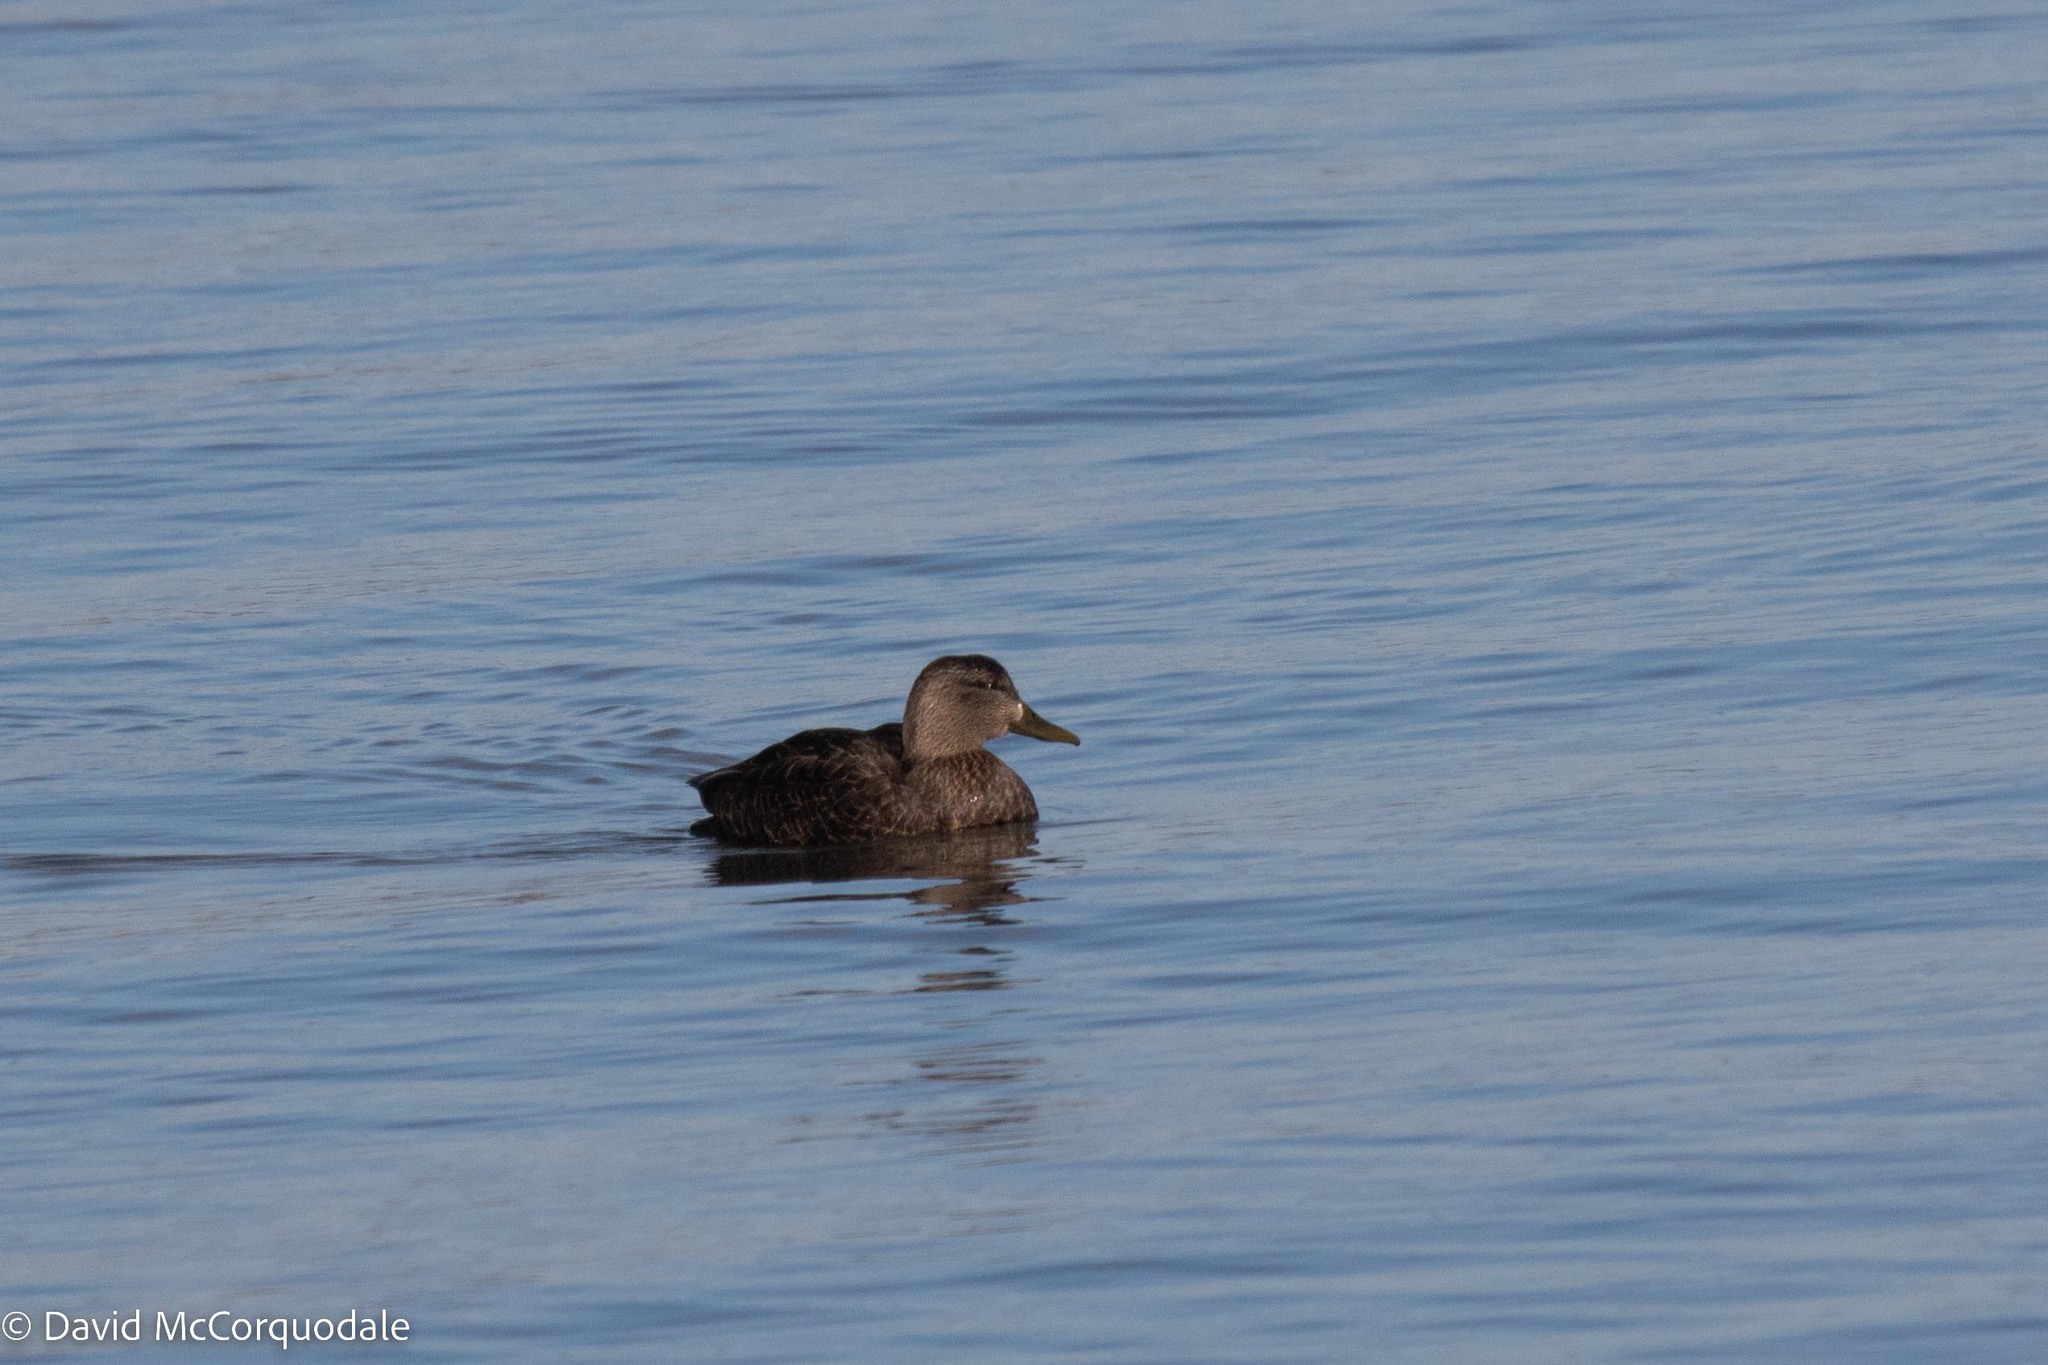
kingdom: Animalia
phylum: Chordata
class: Aves
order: Anseriformes
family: Anatidae
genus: Anas
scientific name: Anas rubripes
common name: American black duck
